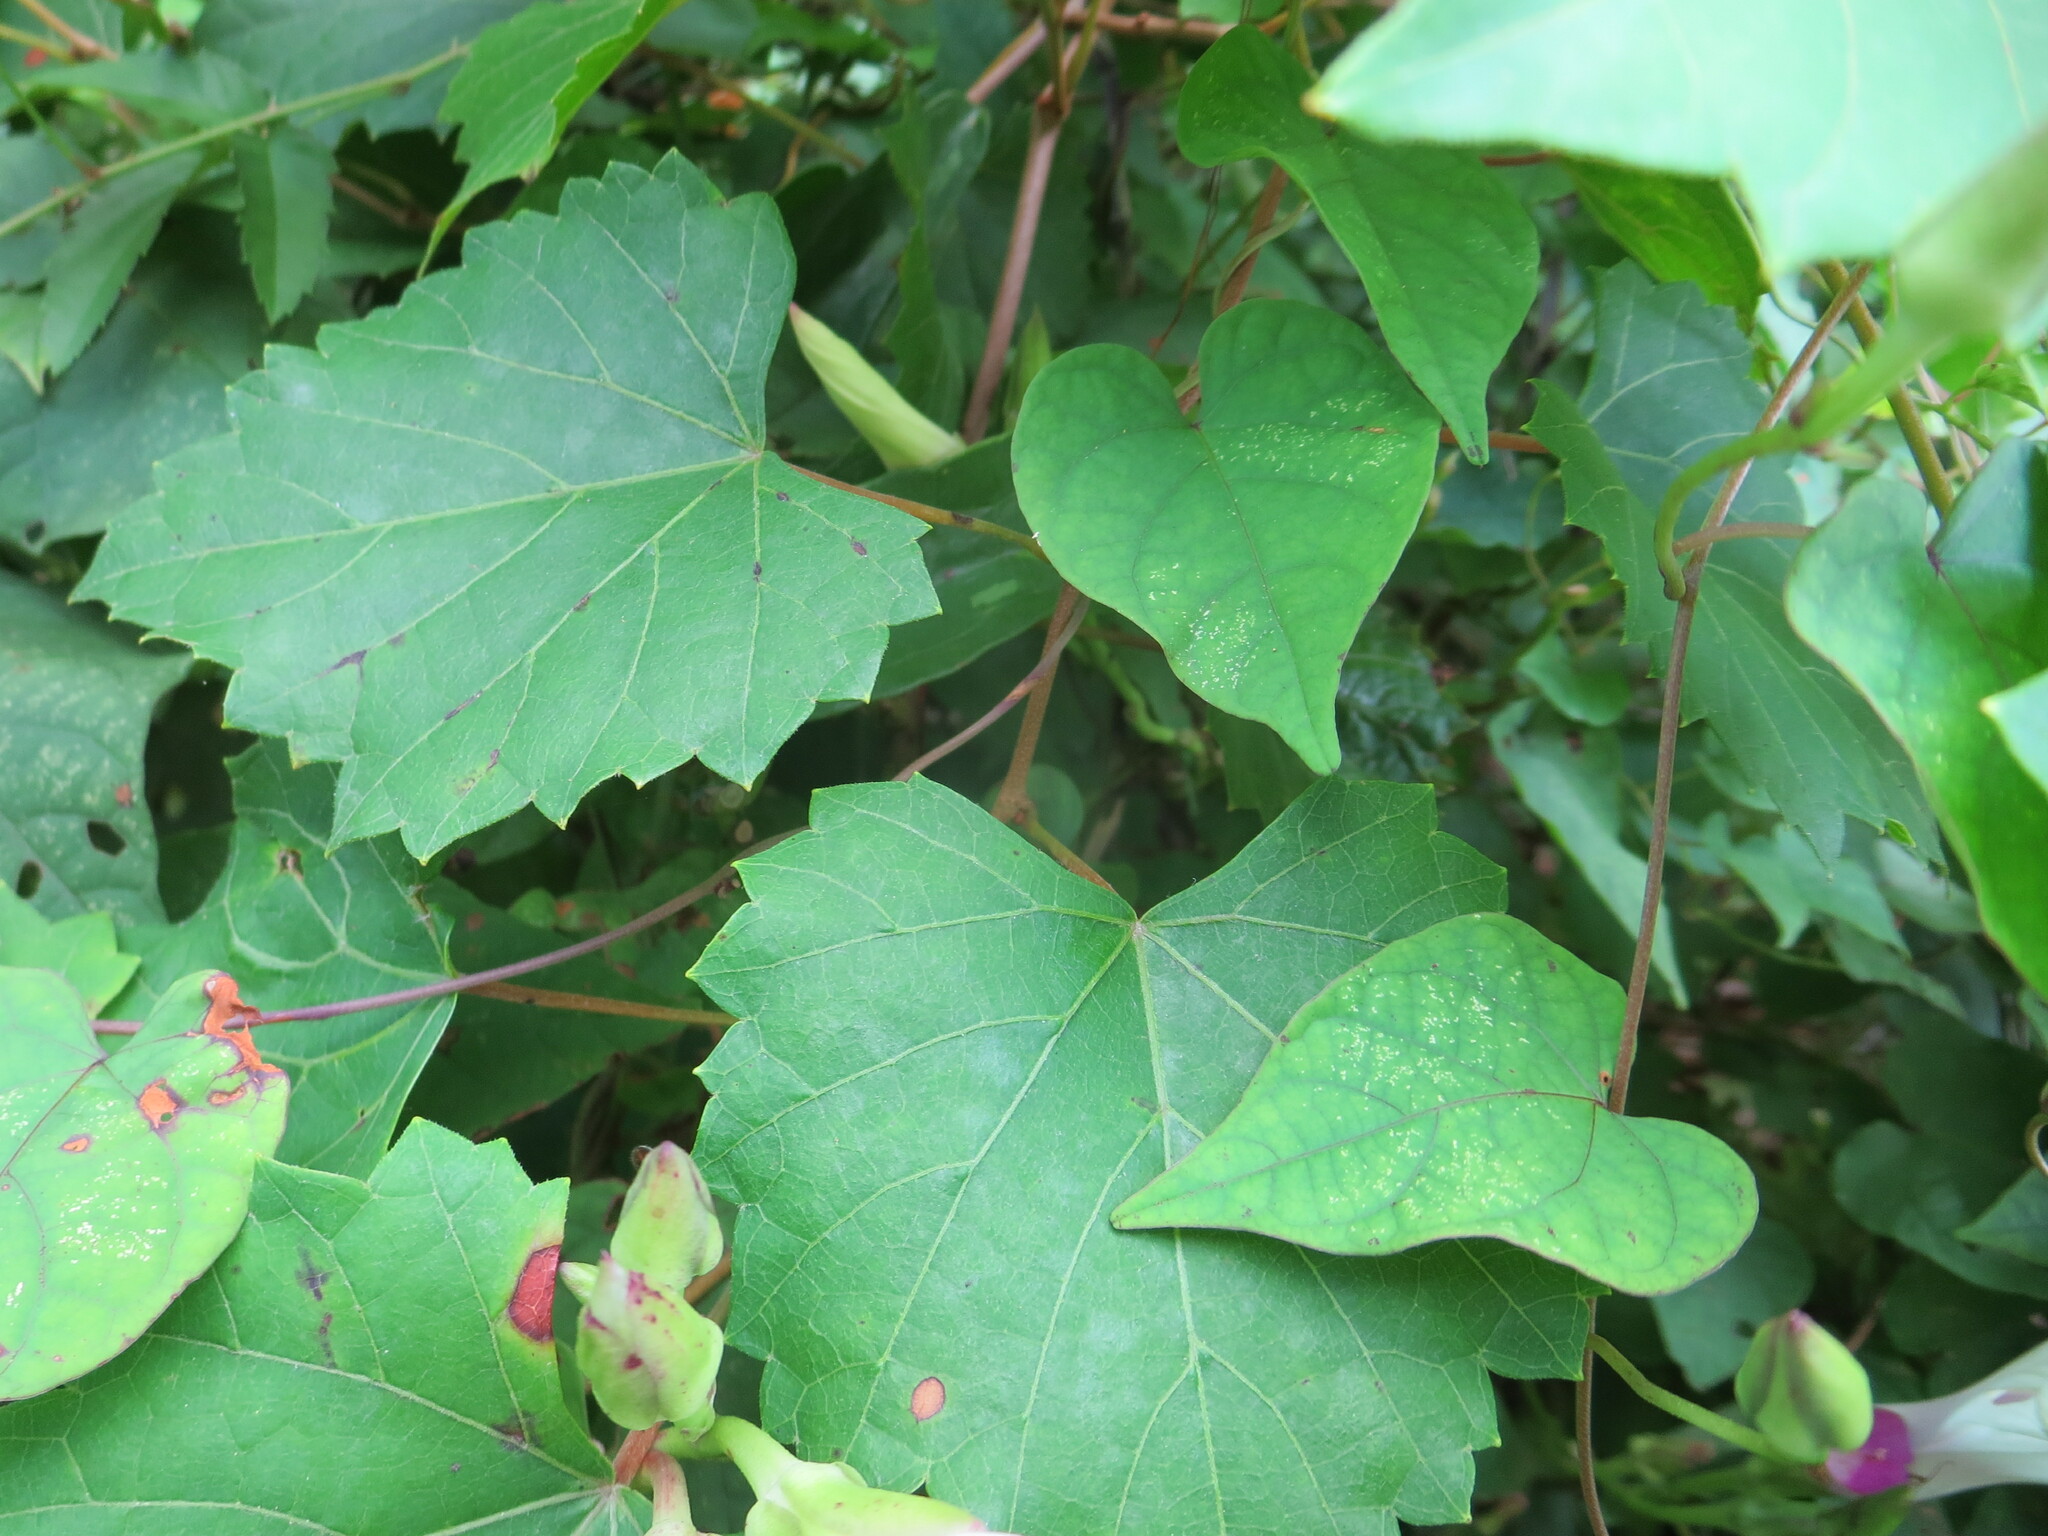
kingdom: Plantae
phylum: Tracheophyta
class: Magnoliopsida
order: Vitales
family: Vitaceae
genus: Vitis
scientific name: Vitis rotundifolia
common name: Muscadine grape
